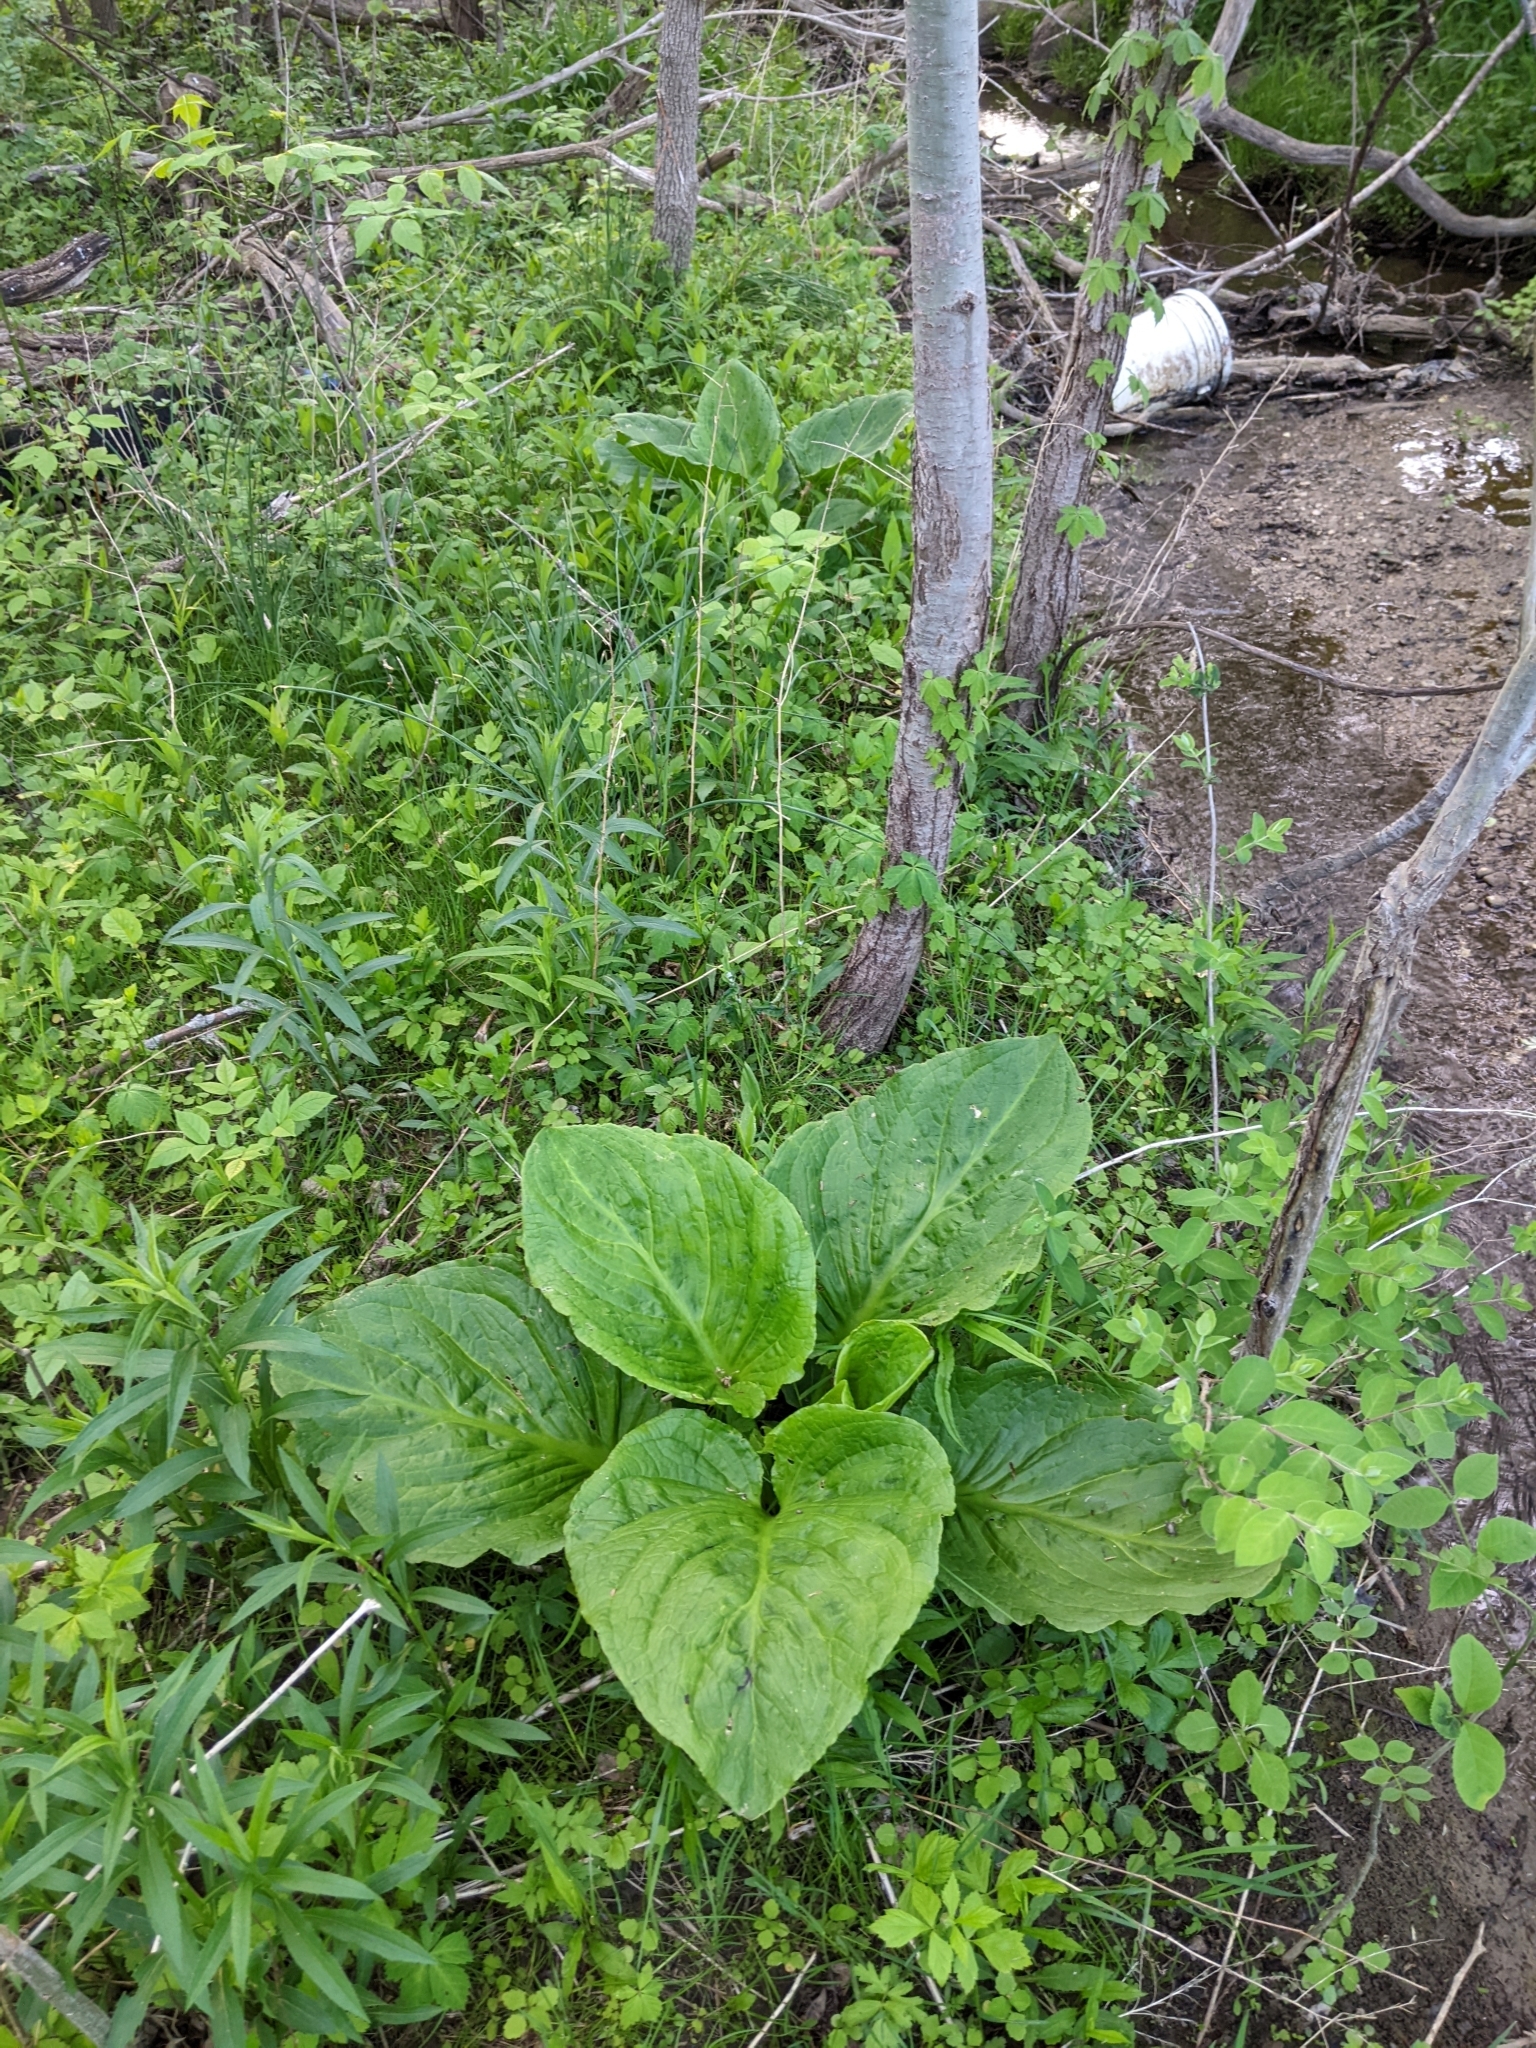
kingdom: Plantae
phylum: Tracheophyta
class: Liliopsida
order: Alismatales
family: Araceae
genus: Symplocarpus
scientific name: Symplocarpus foetidus
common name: Eastern skunk cabbage
